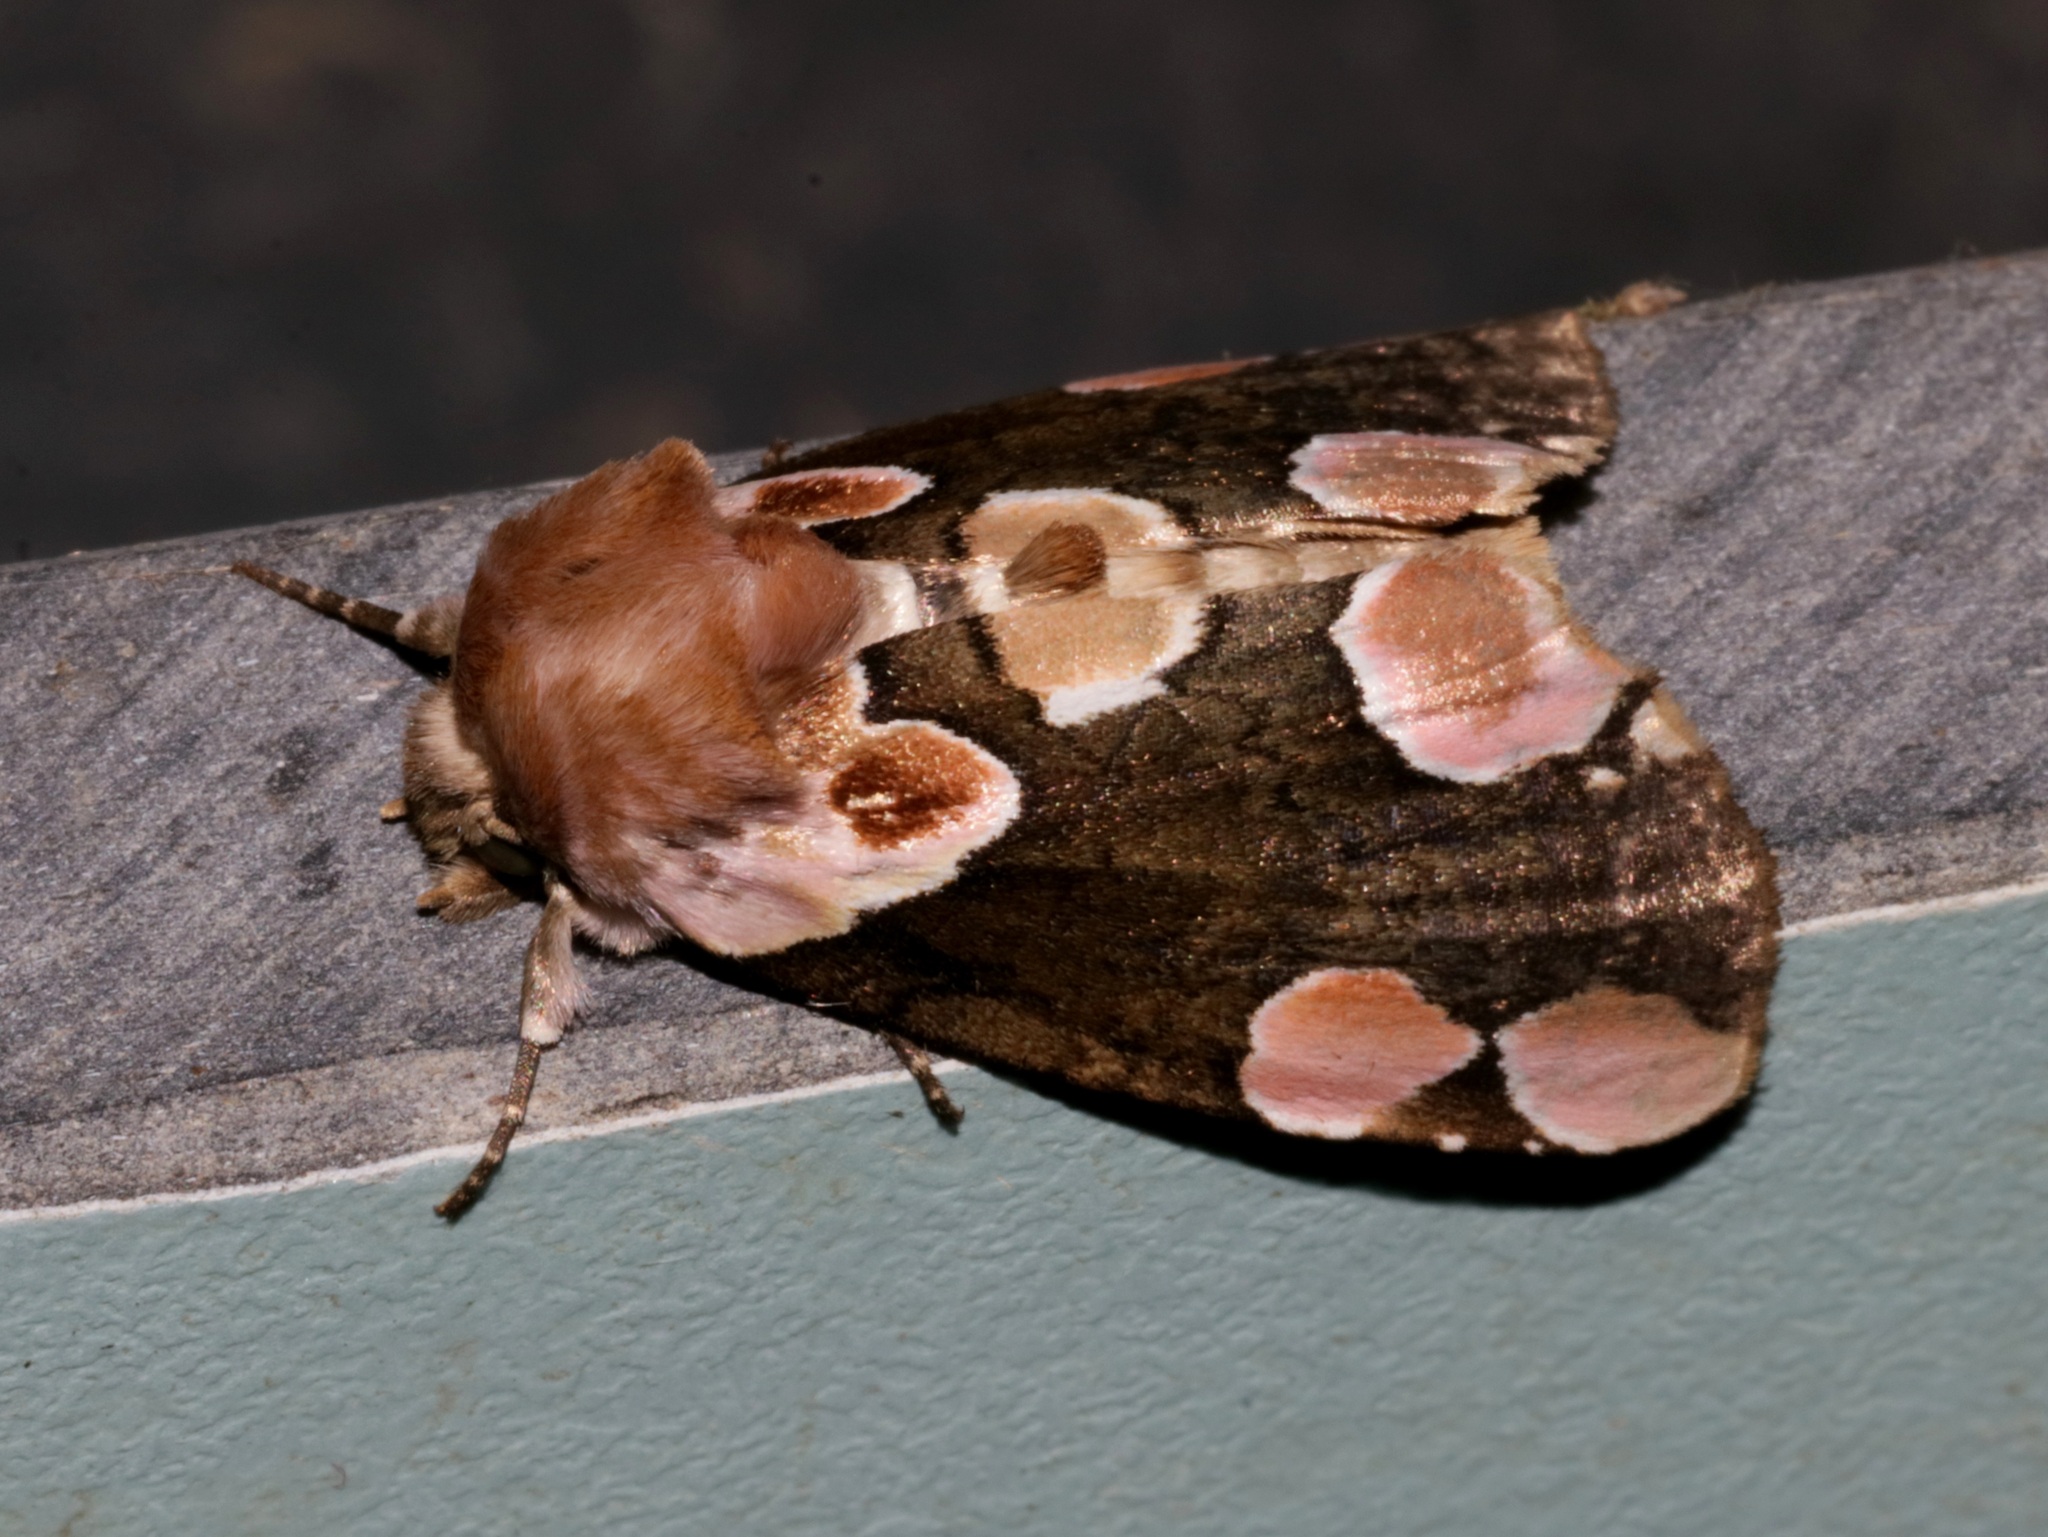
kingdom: Animalia
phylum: Arthropoda
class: Insecta
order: Lepidoptera
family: Drepanidae
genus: Thyatira
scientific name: Thyatira batis
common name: Peach blossom
